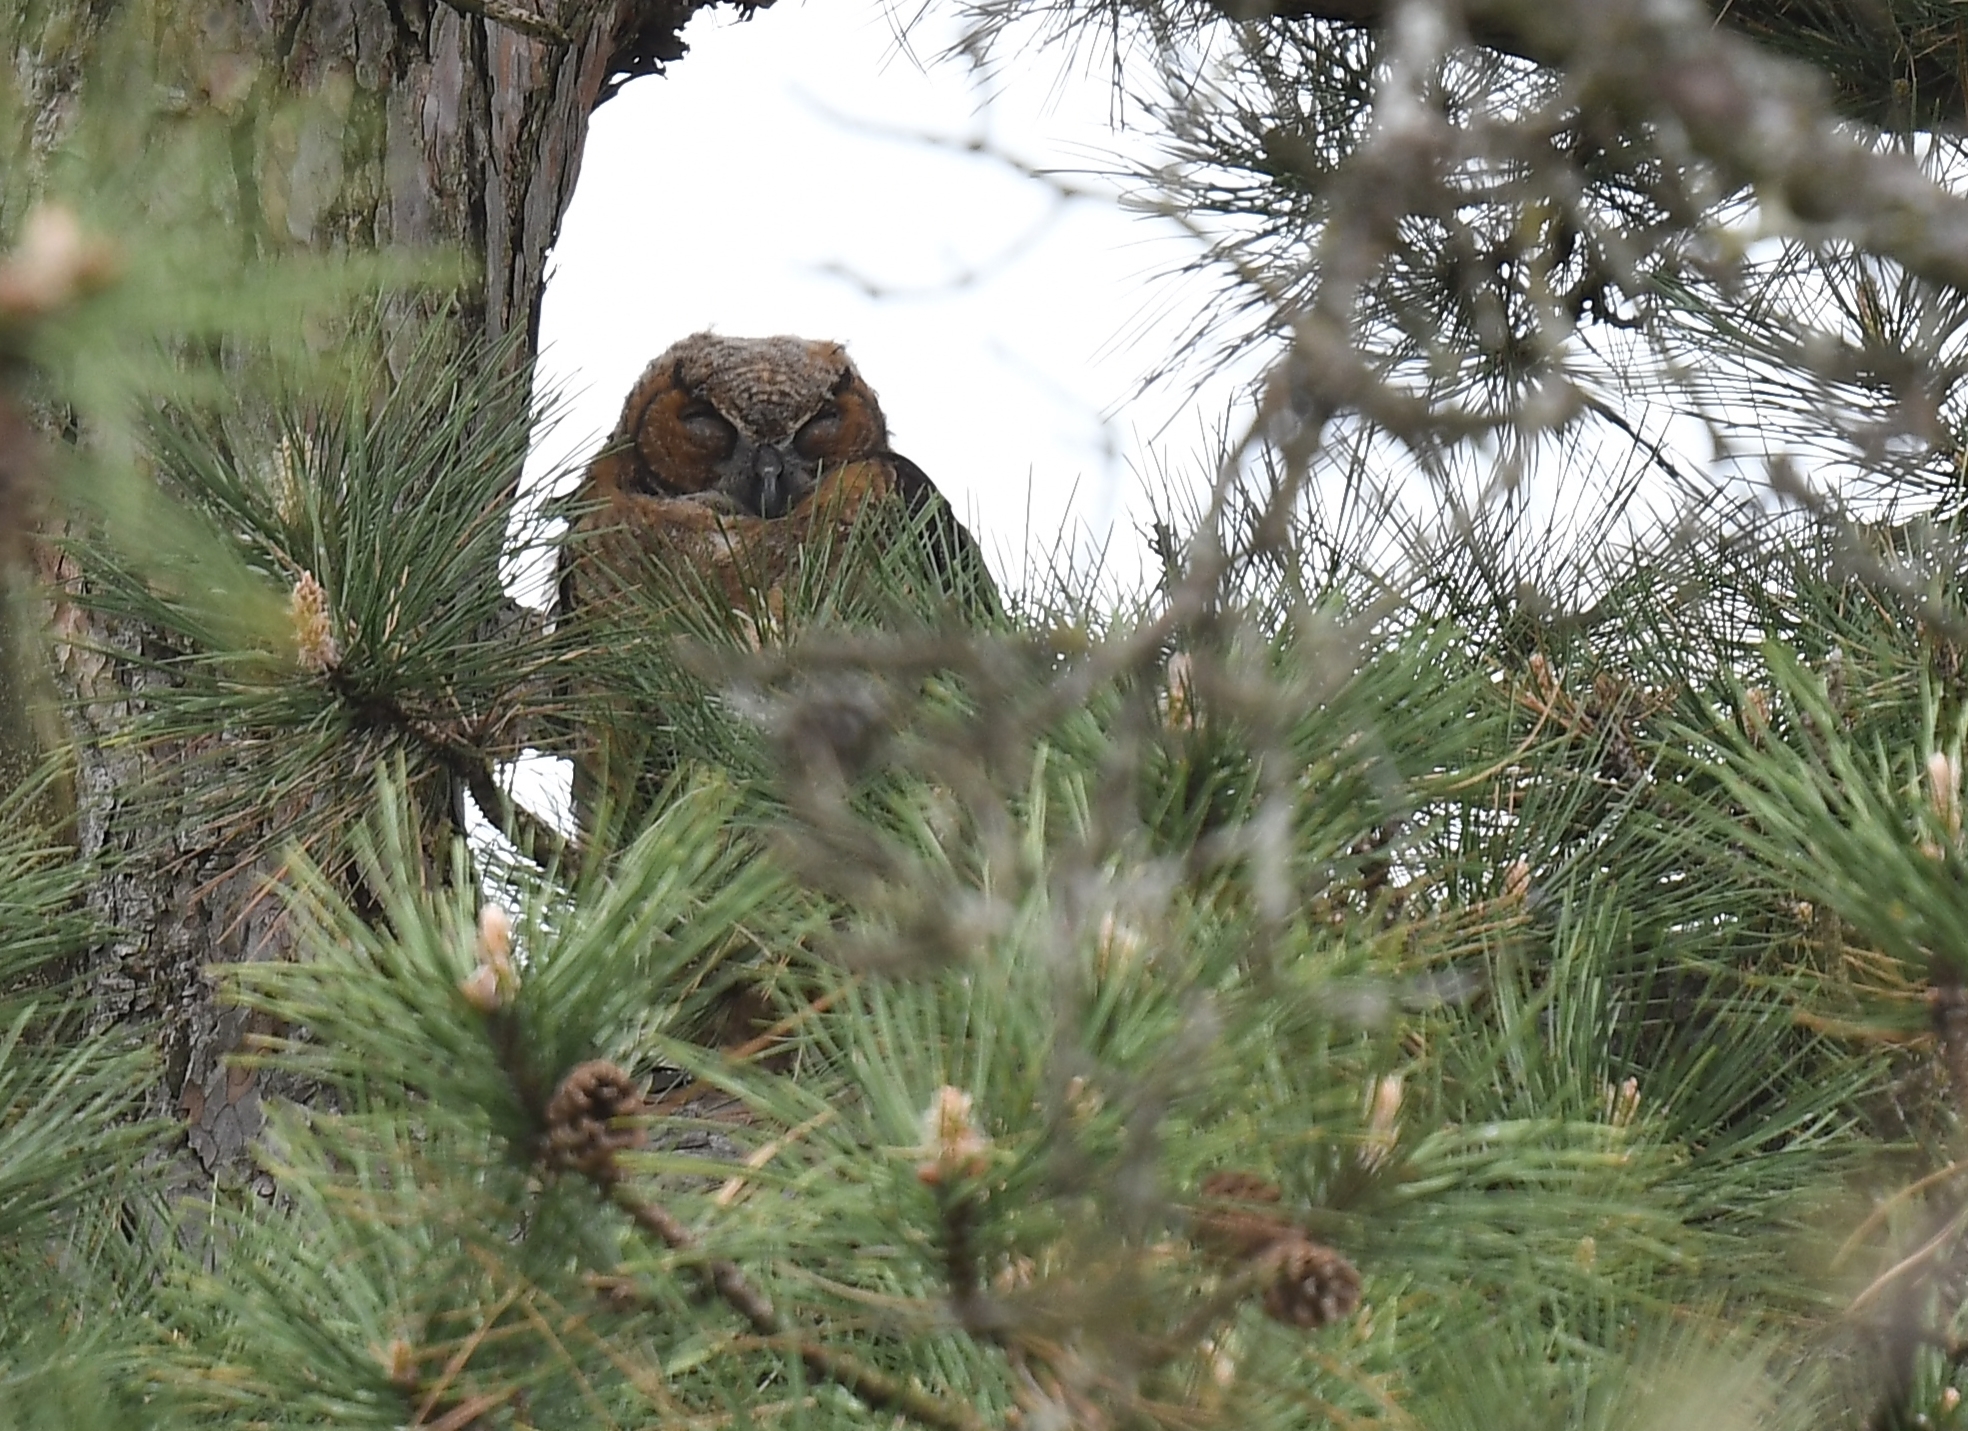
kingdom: Animalia
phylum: Chordata
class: Aves
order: Strigiformes
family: Strigidae
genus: Bubo
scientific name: Bubo virginianus
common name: Great horned owl
